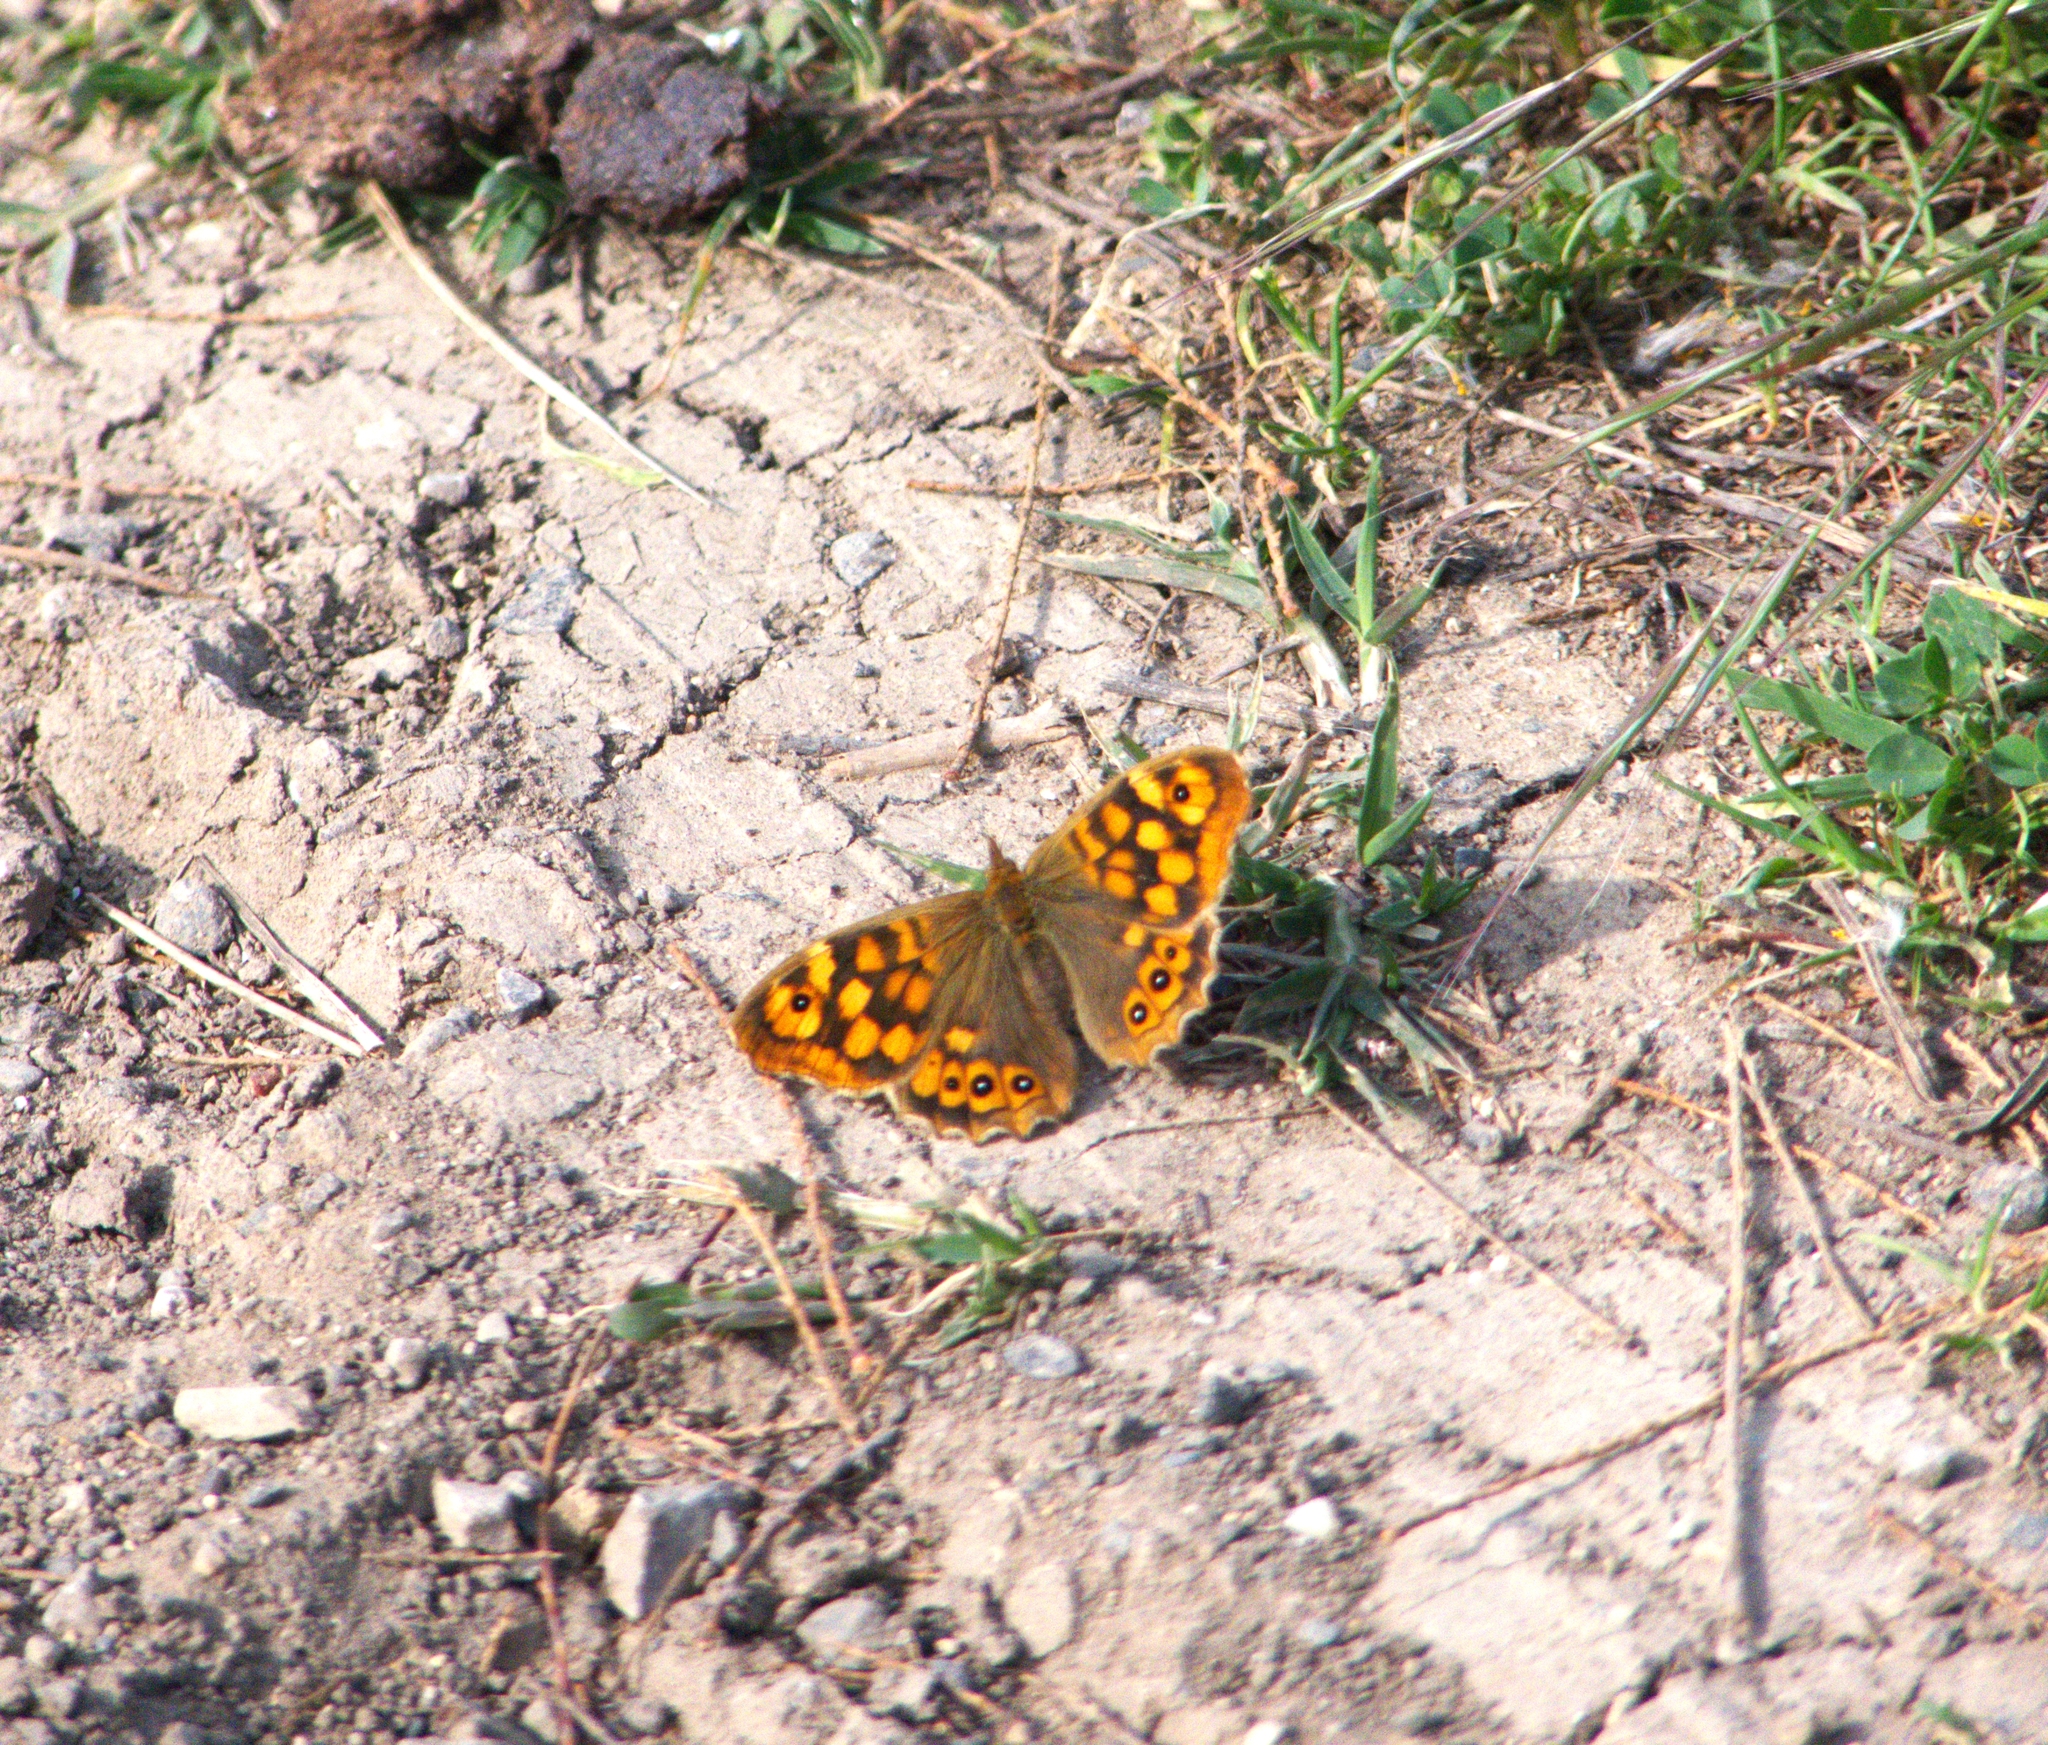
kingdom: Animalia
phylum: Arthropoda
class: Insecta
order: Lepidoptera
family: Nymphalidae
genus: Pararge
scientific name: Pararge aegeria
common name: Speckled wood
